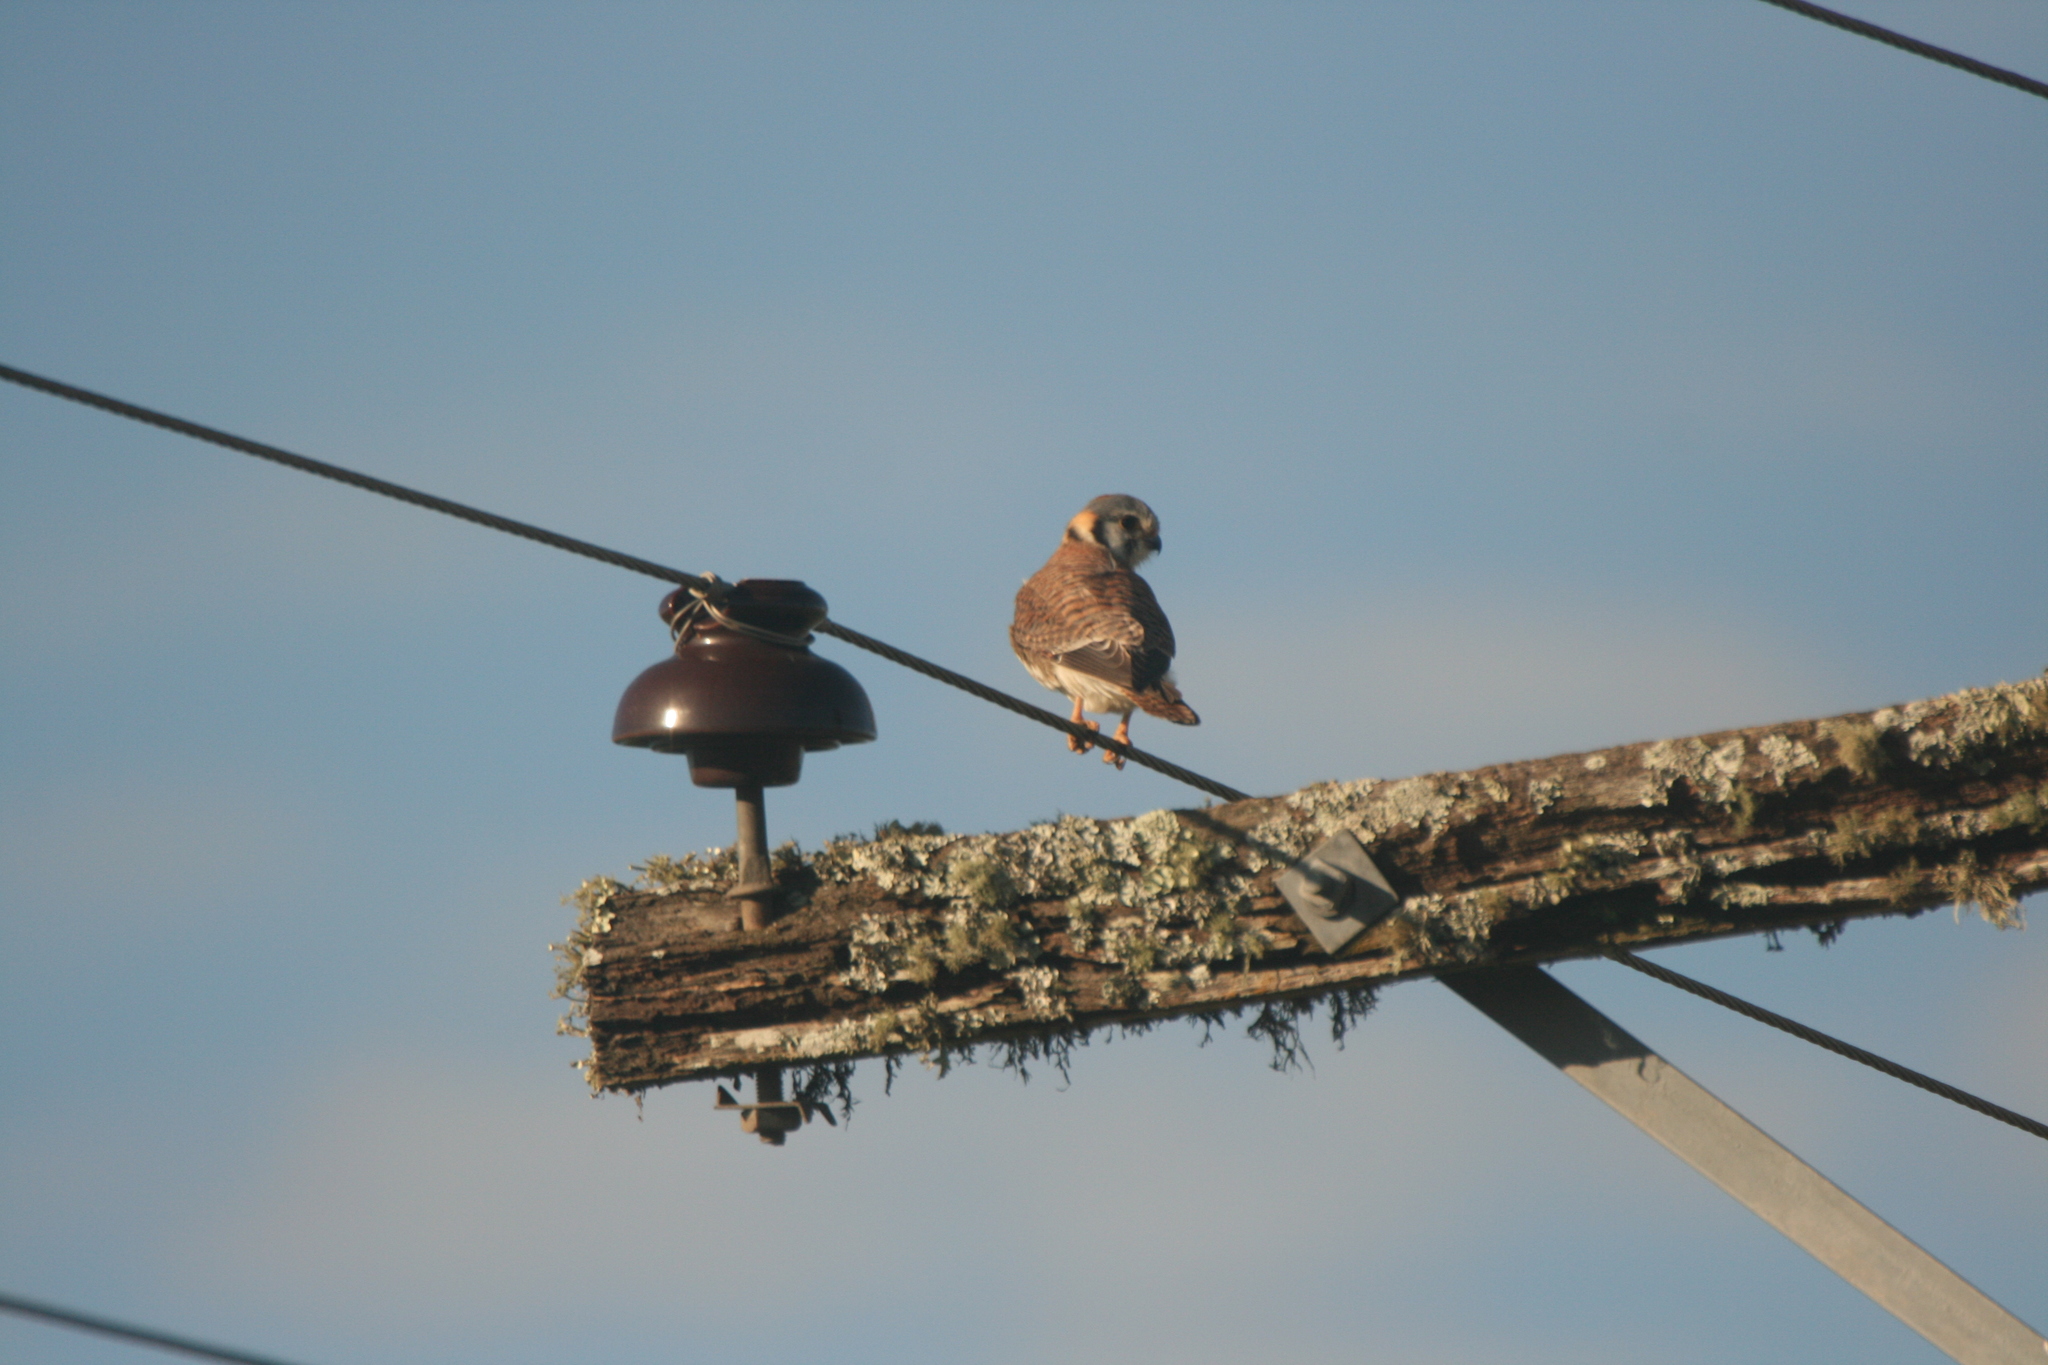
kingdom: Animalia
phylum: Chordata
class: Aves
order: Falconiformes
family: Falconidae
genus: Falco
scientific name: Falco sparverius
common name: American kestrel
